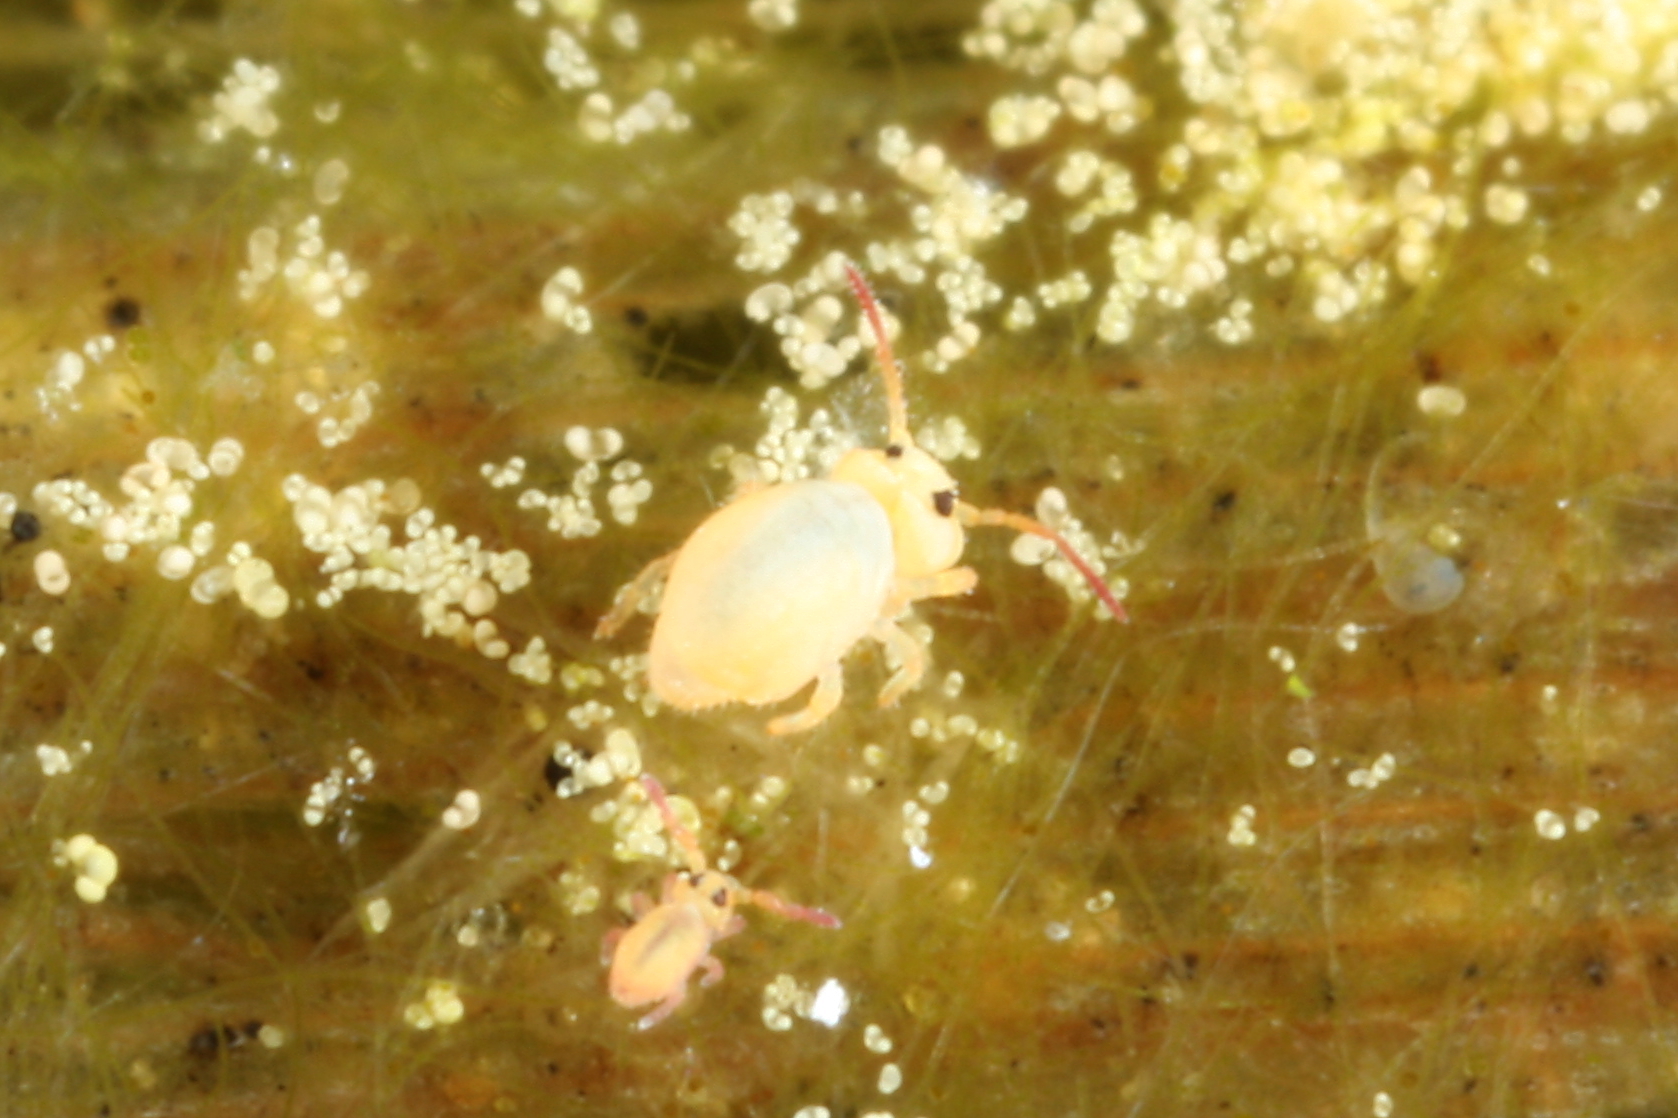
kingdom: Animalia
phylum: Arthropoda
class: Collembola
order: Symphypleona
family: Sminthurididae
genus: Sminthurides
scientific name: Sminthurides aquaticus
